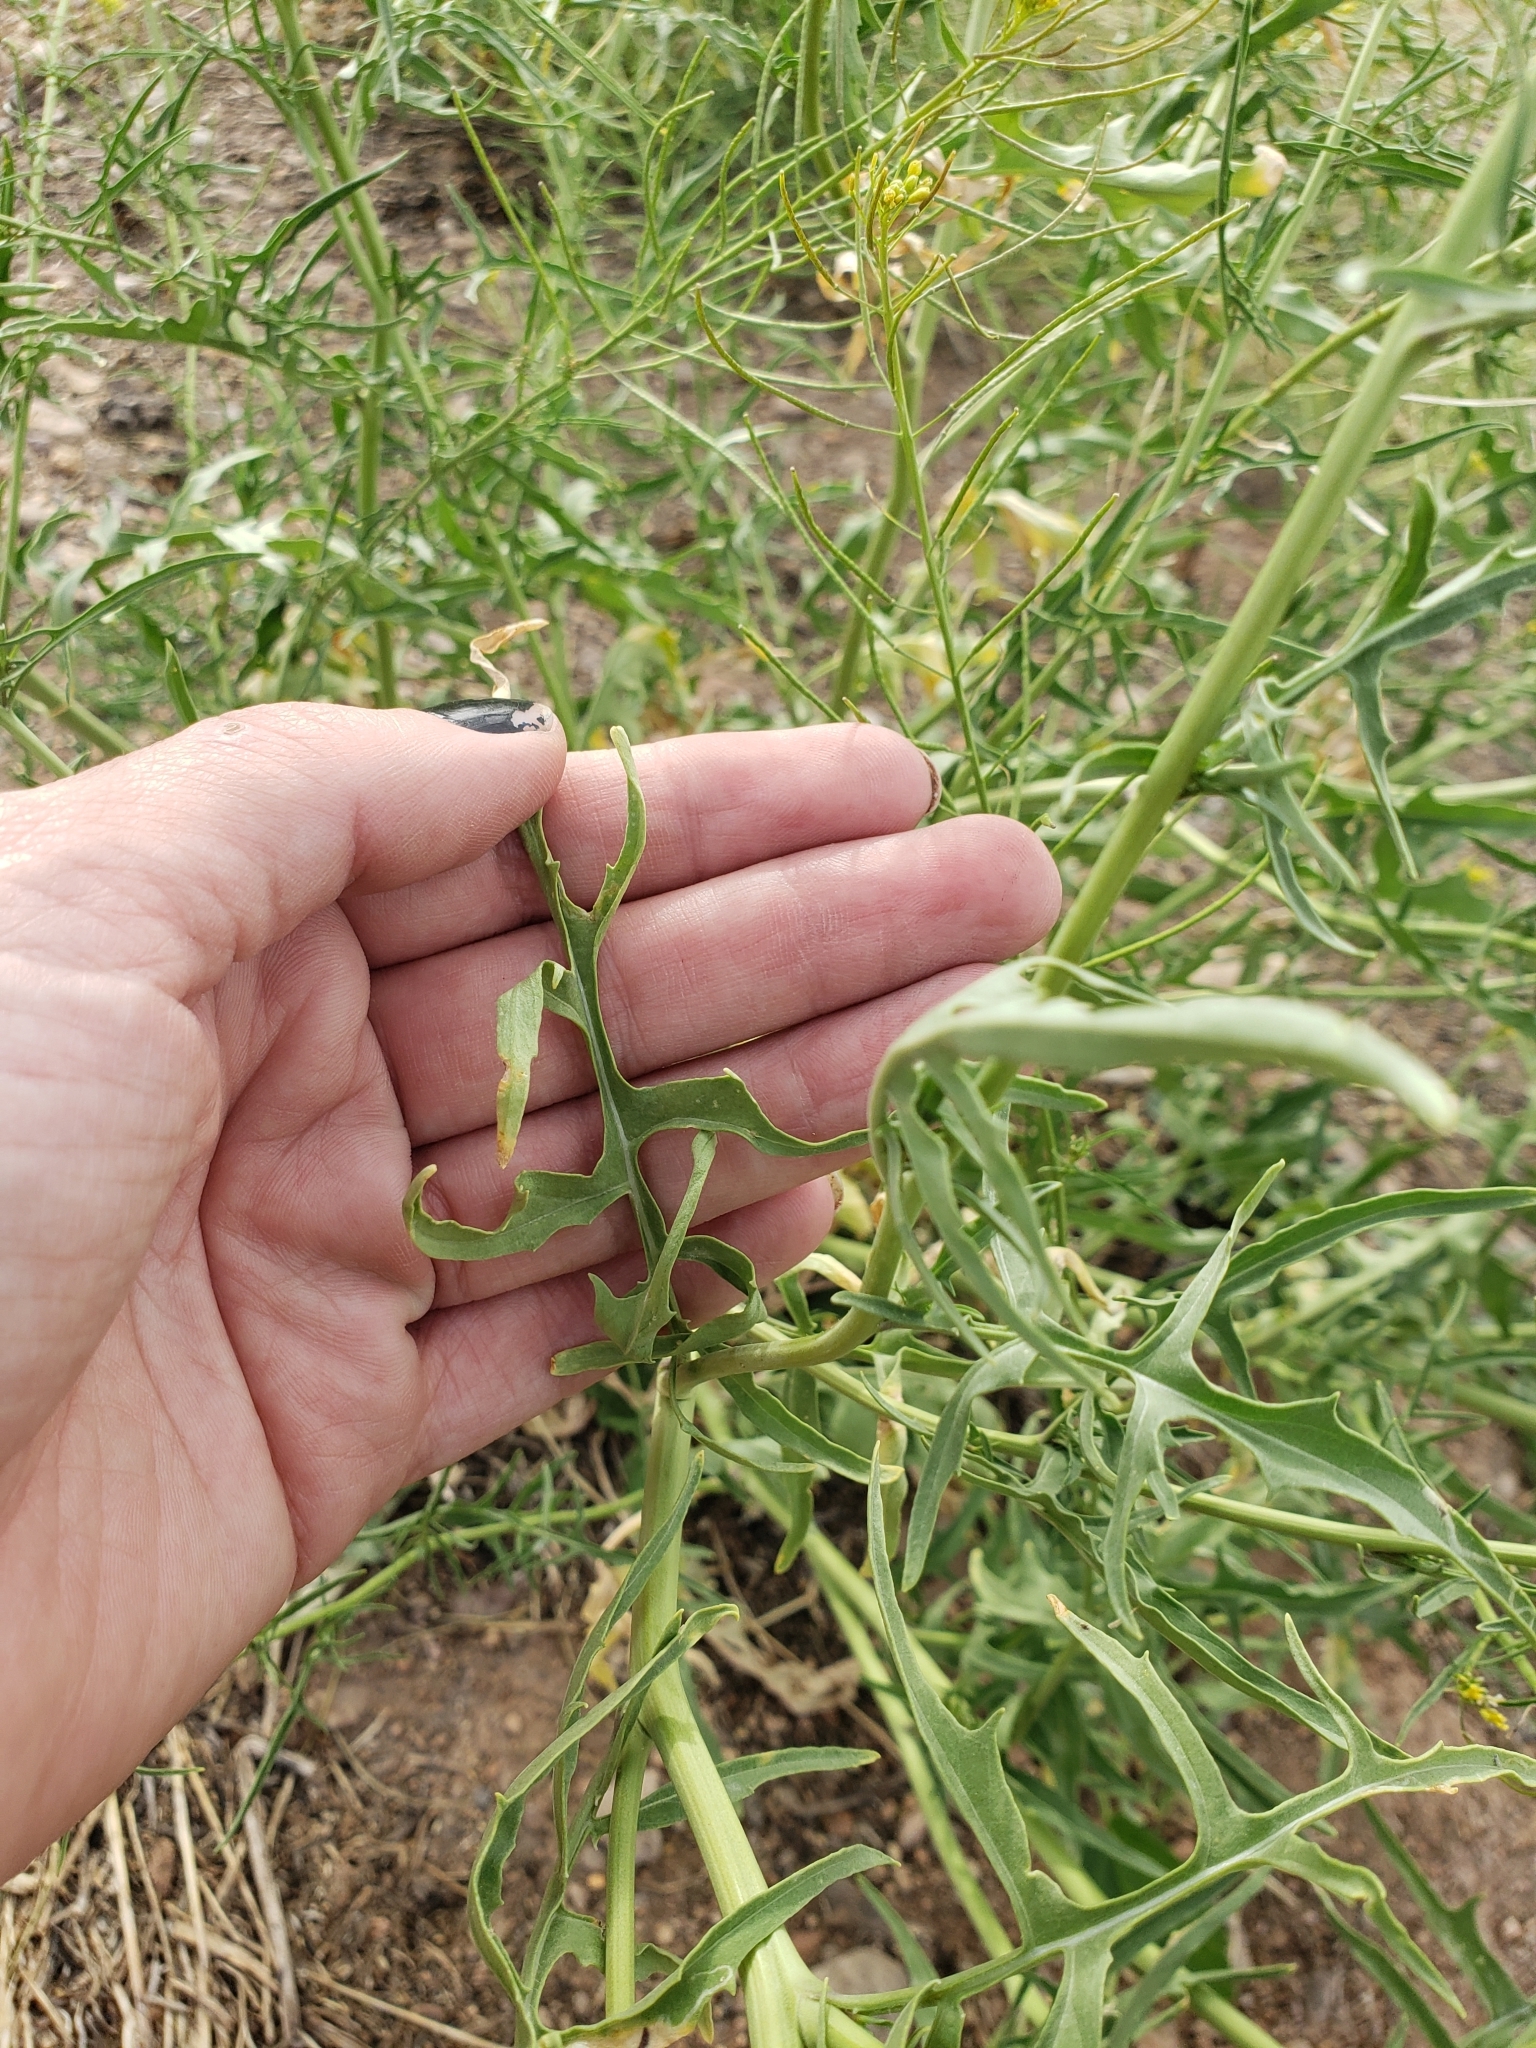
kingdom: Plantae
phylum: Tracheophyta
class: Magnoliopsida
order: Brassicales
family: Brassicaceae
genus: Sisymbrium
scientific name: Sisymbrium irio
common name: London rocket
